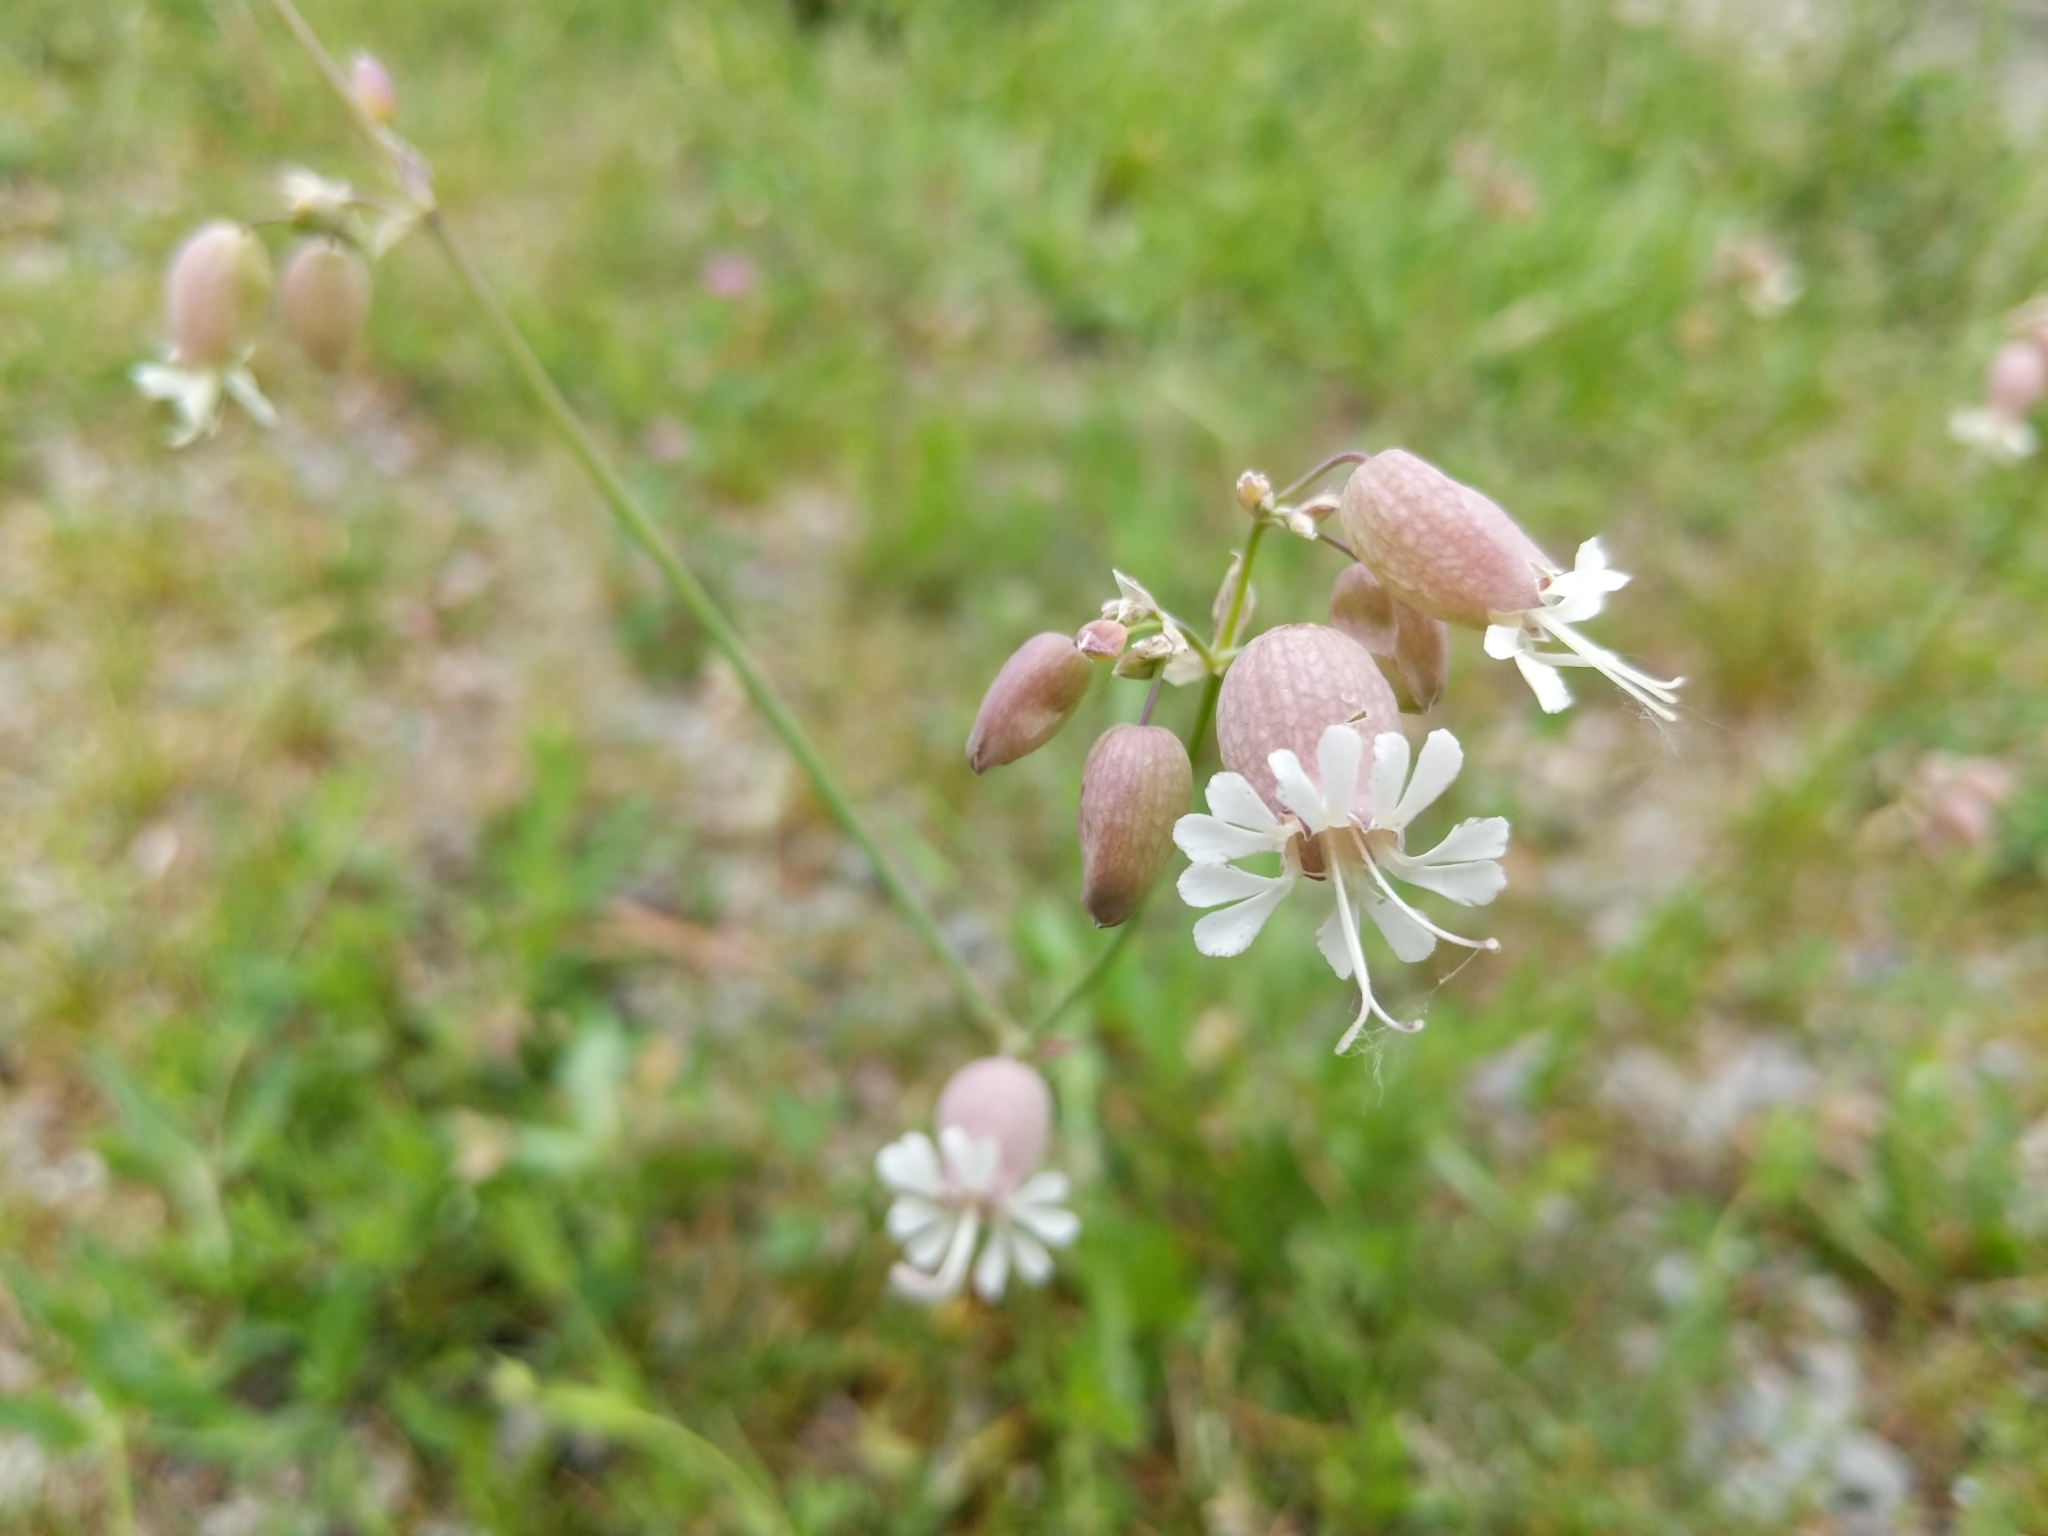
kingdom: Plantae
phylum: Tracheophyta
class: Magnoliopsida
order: Caryophyllales
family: Caryophyllaceae
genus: Silene
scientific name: Silene vulgaris
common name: Bladder campion
